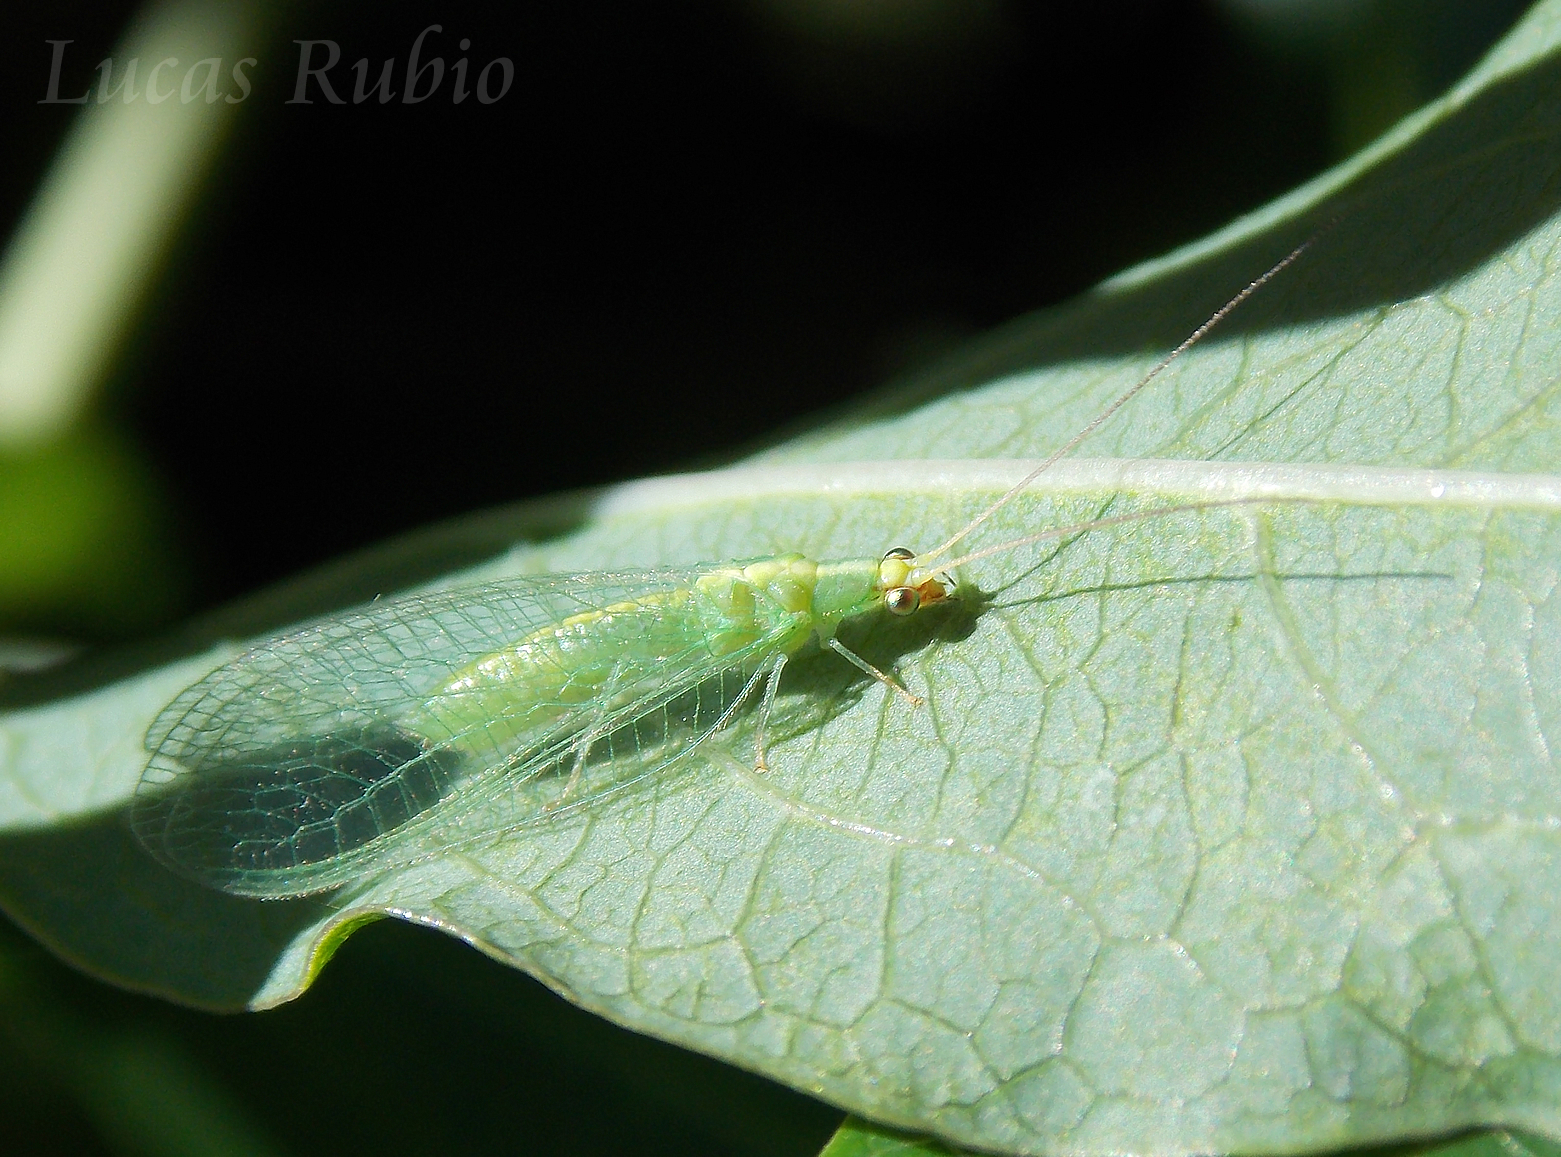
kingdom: Animalia
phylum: Arthropoda
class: Insecta
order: Neuroptera
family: Chrysopidae
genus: Chrysoperla
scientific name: Chrysoperla argentina
